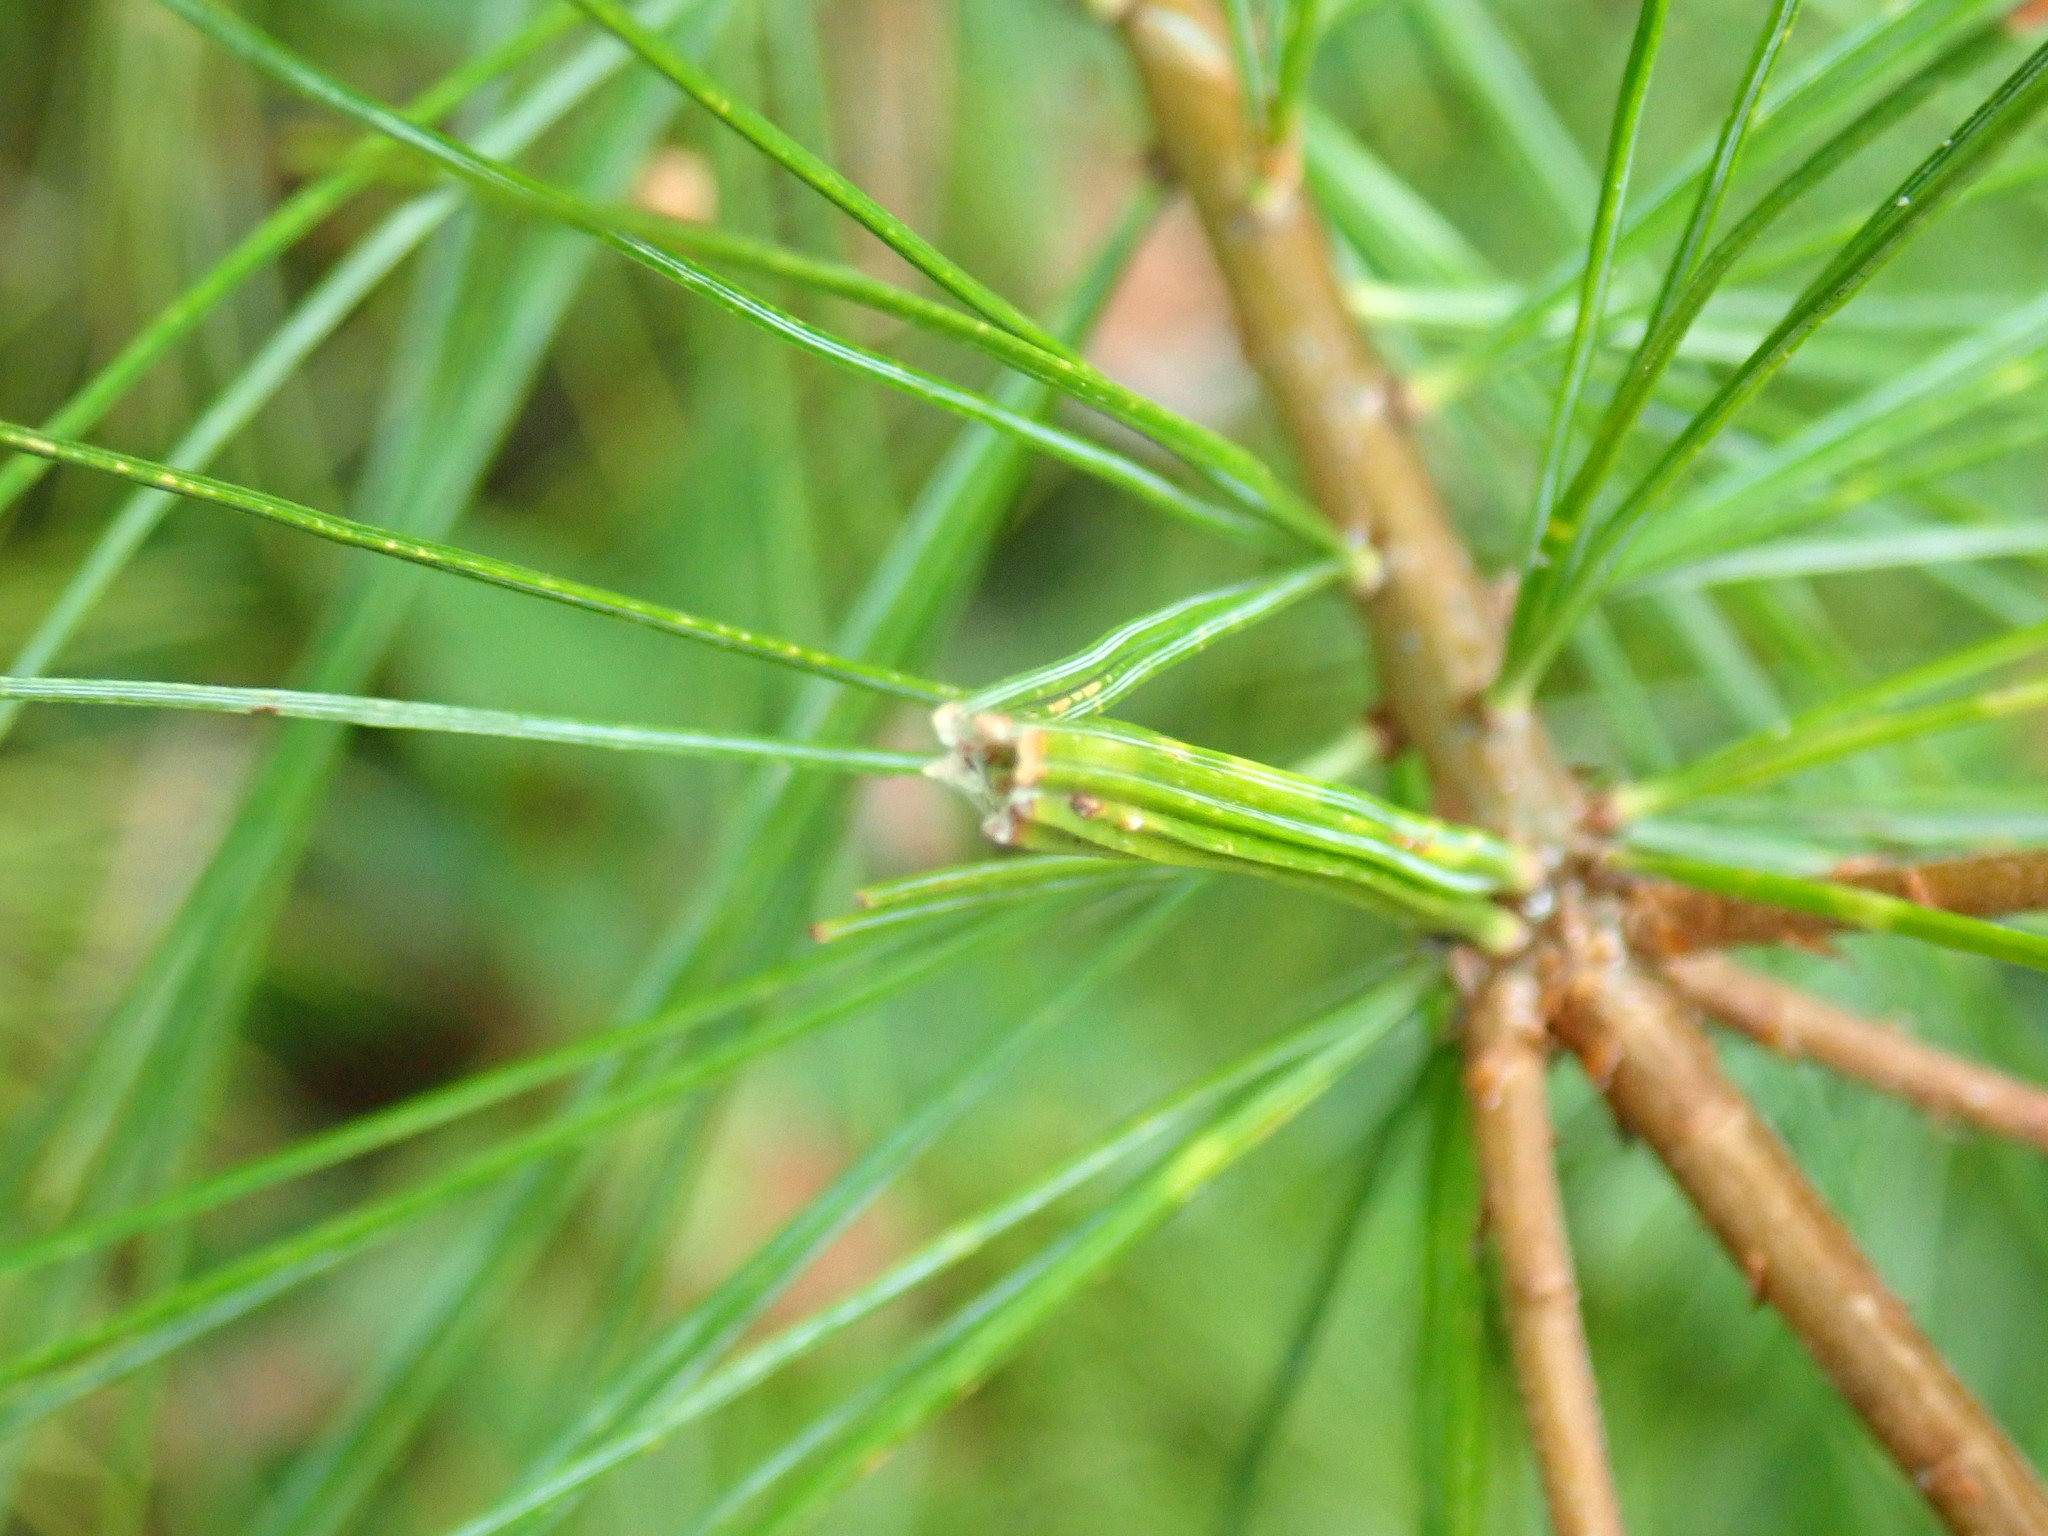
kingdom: Animalia
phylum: Arthropoda
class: Insecta
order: Lepidoptera
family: Tortricidae
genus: Argyrotaenia
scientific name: Argyrotaenia pinatubana
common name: Pine tube moth
